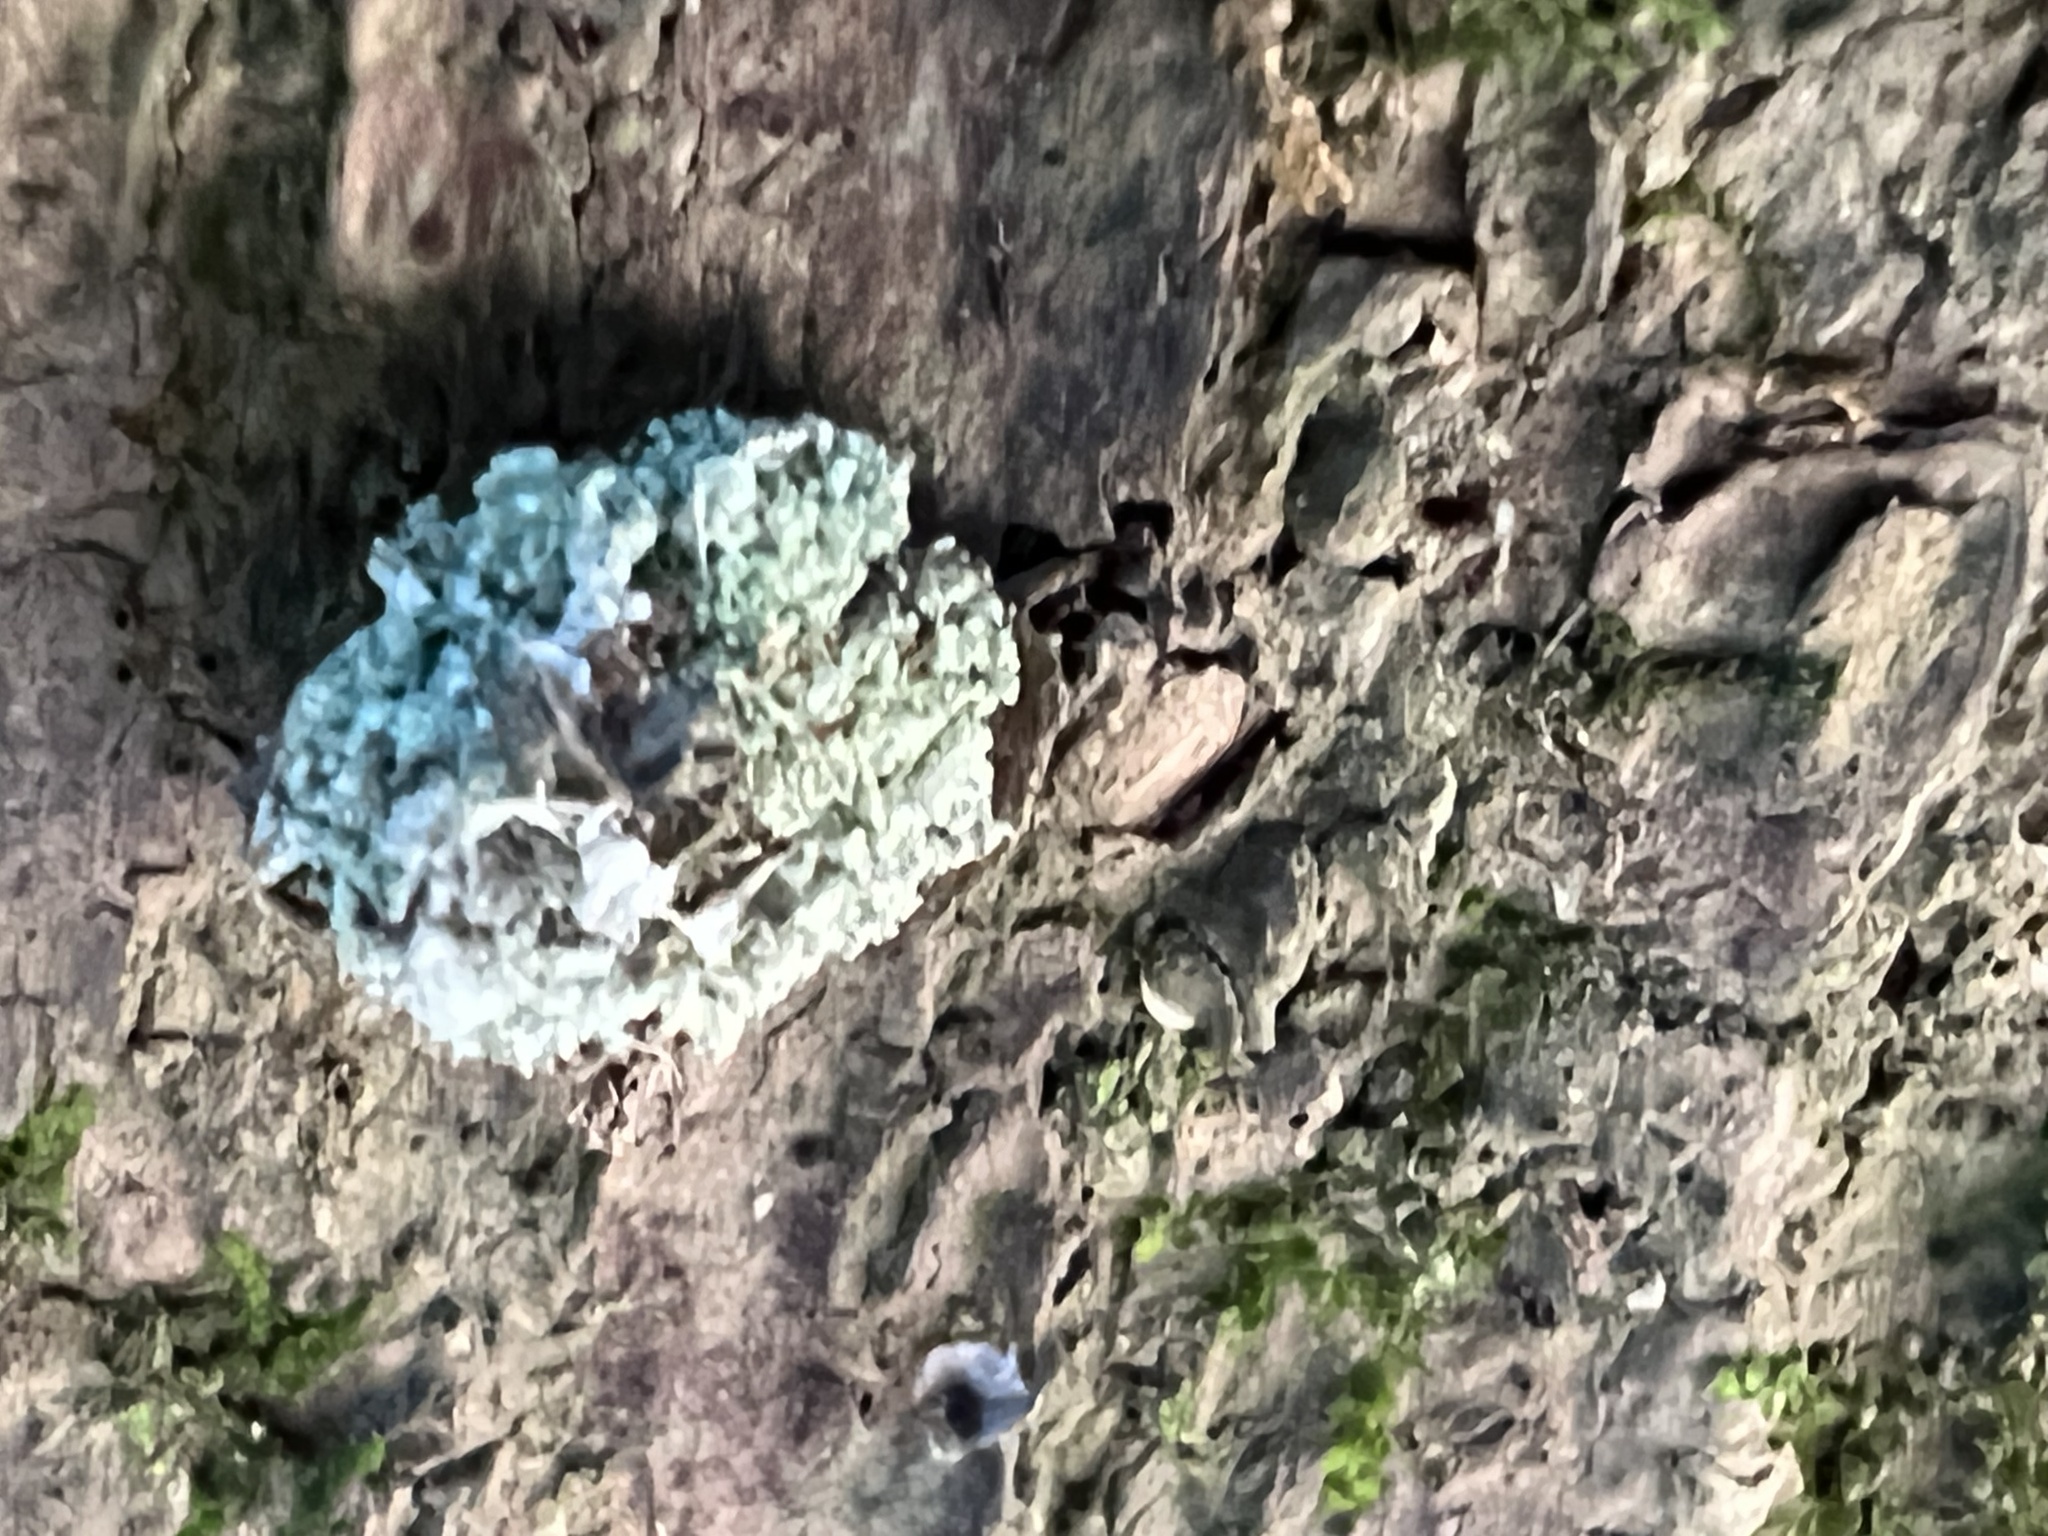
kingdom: Animalia
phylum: Arthropoda
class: Insecta
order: Neuroptera
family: Chrysopidae
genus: Leucochrysa
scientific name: Leucochrysa pavida
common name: Lichen-carrying green lacewing
